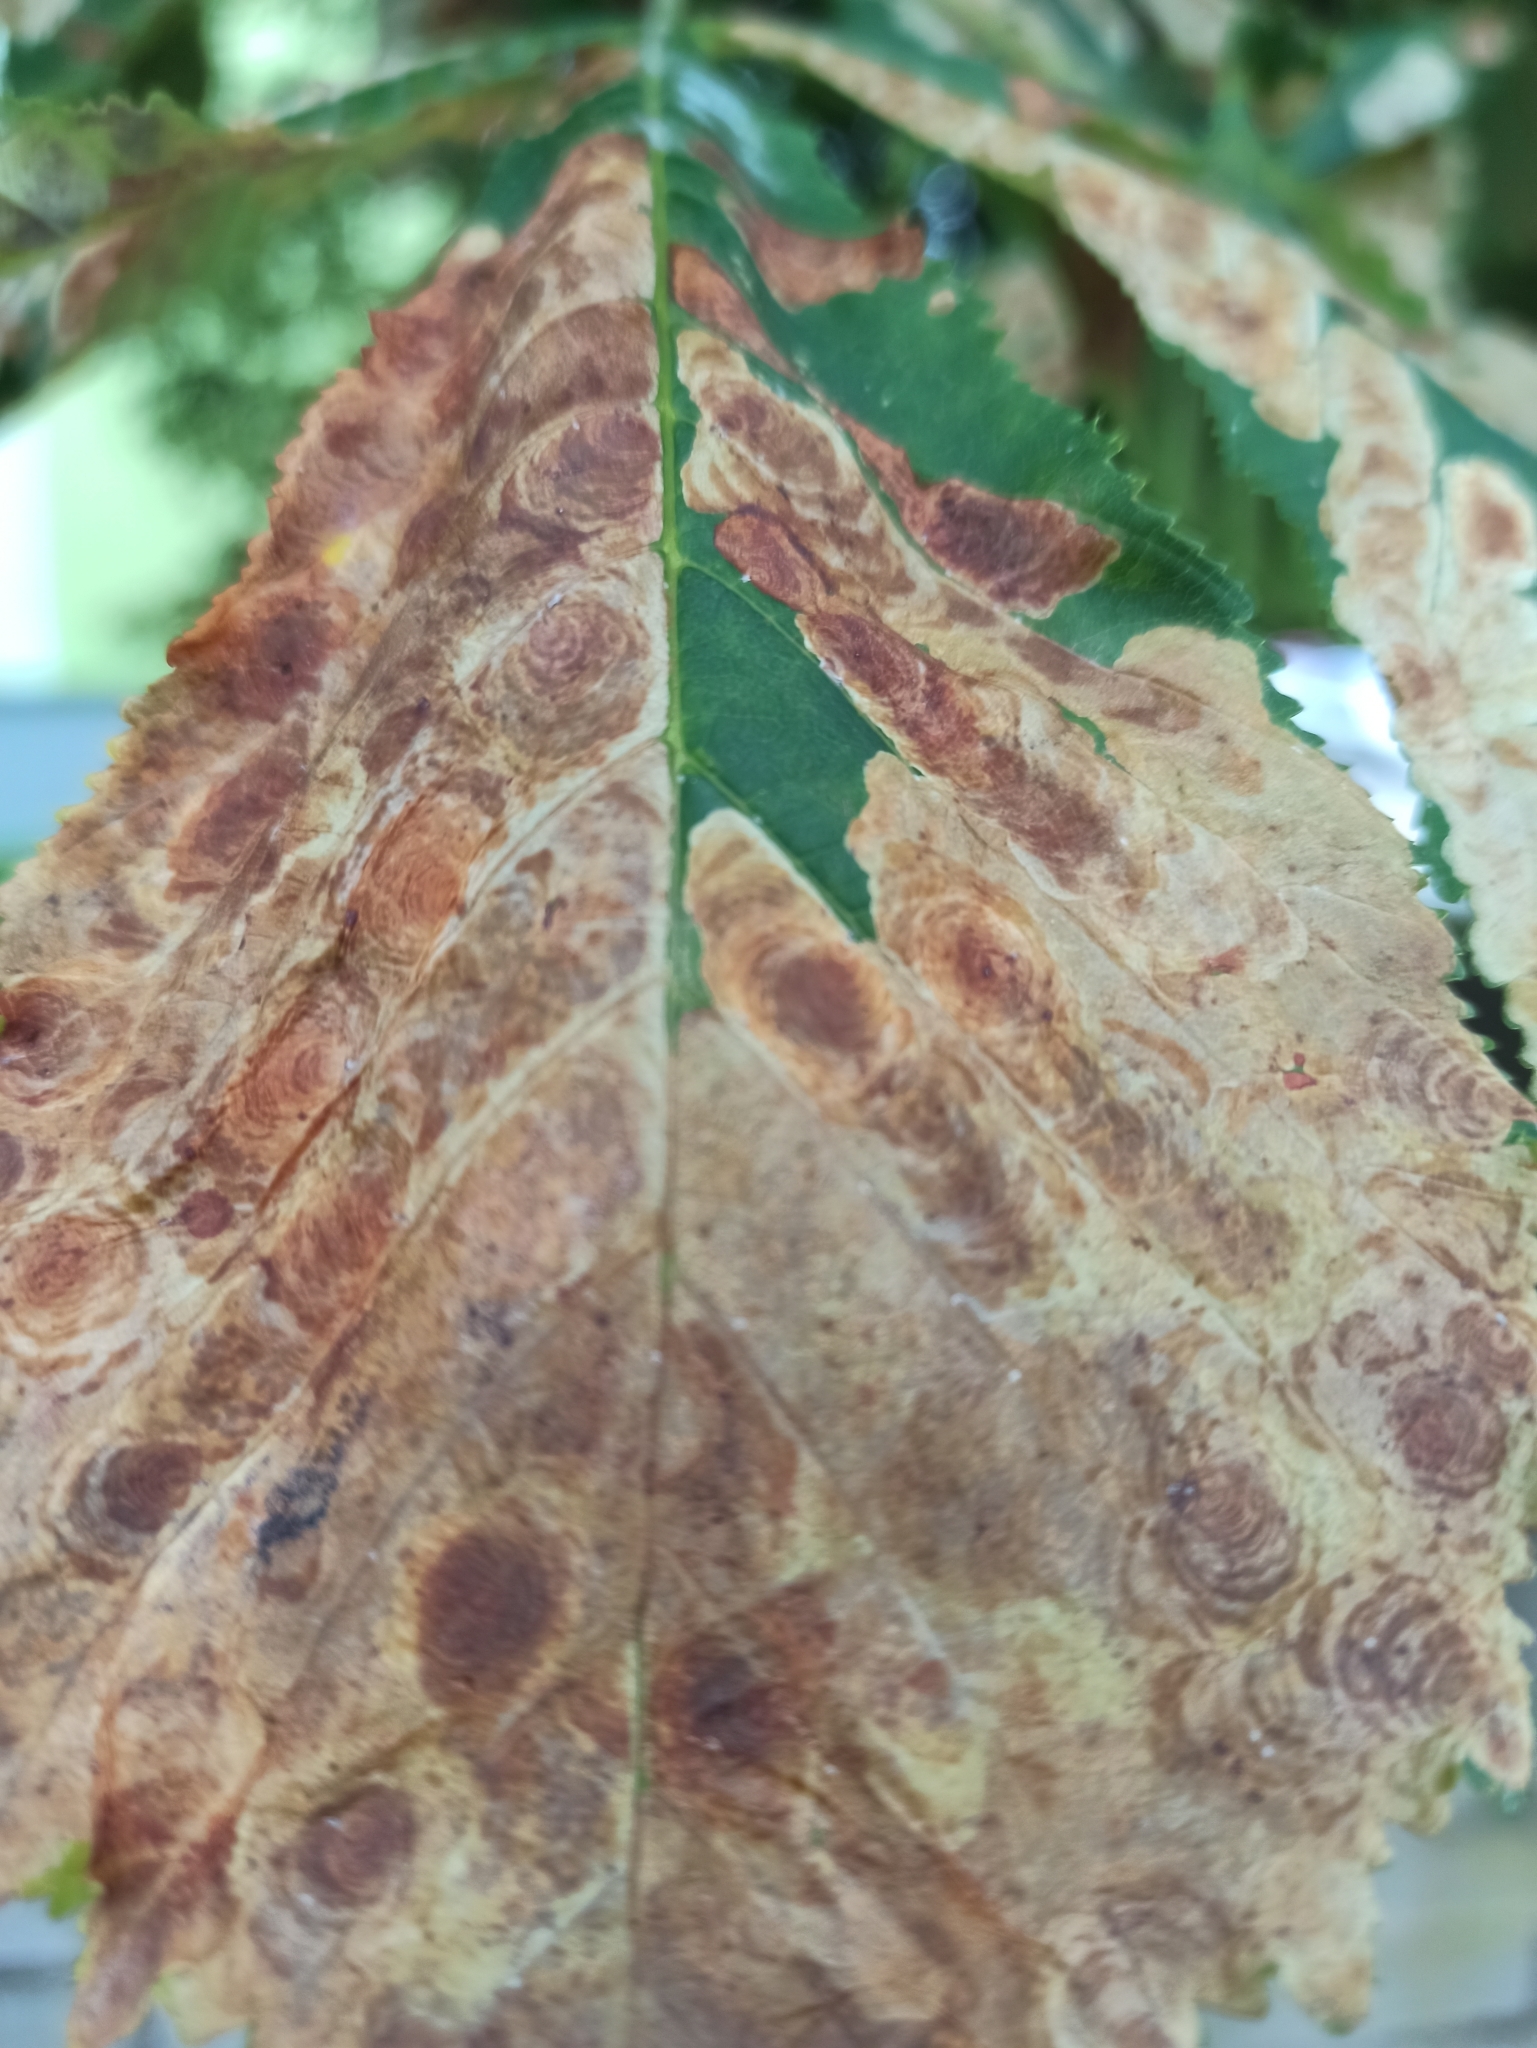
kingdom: Animalia
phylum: Arthropoda
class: Insecta
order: Lepidoptera
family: Gracillariidae
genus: Cameraria
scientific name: Cameraria ohridella
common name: Horse-chestnut leaf-miner
